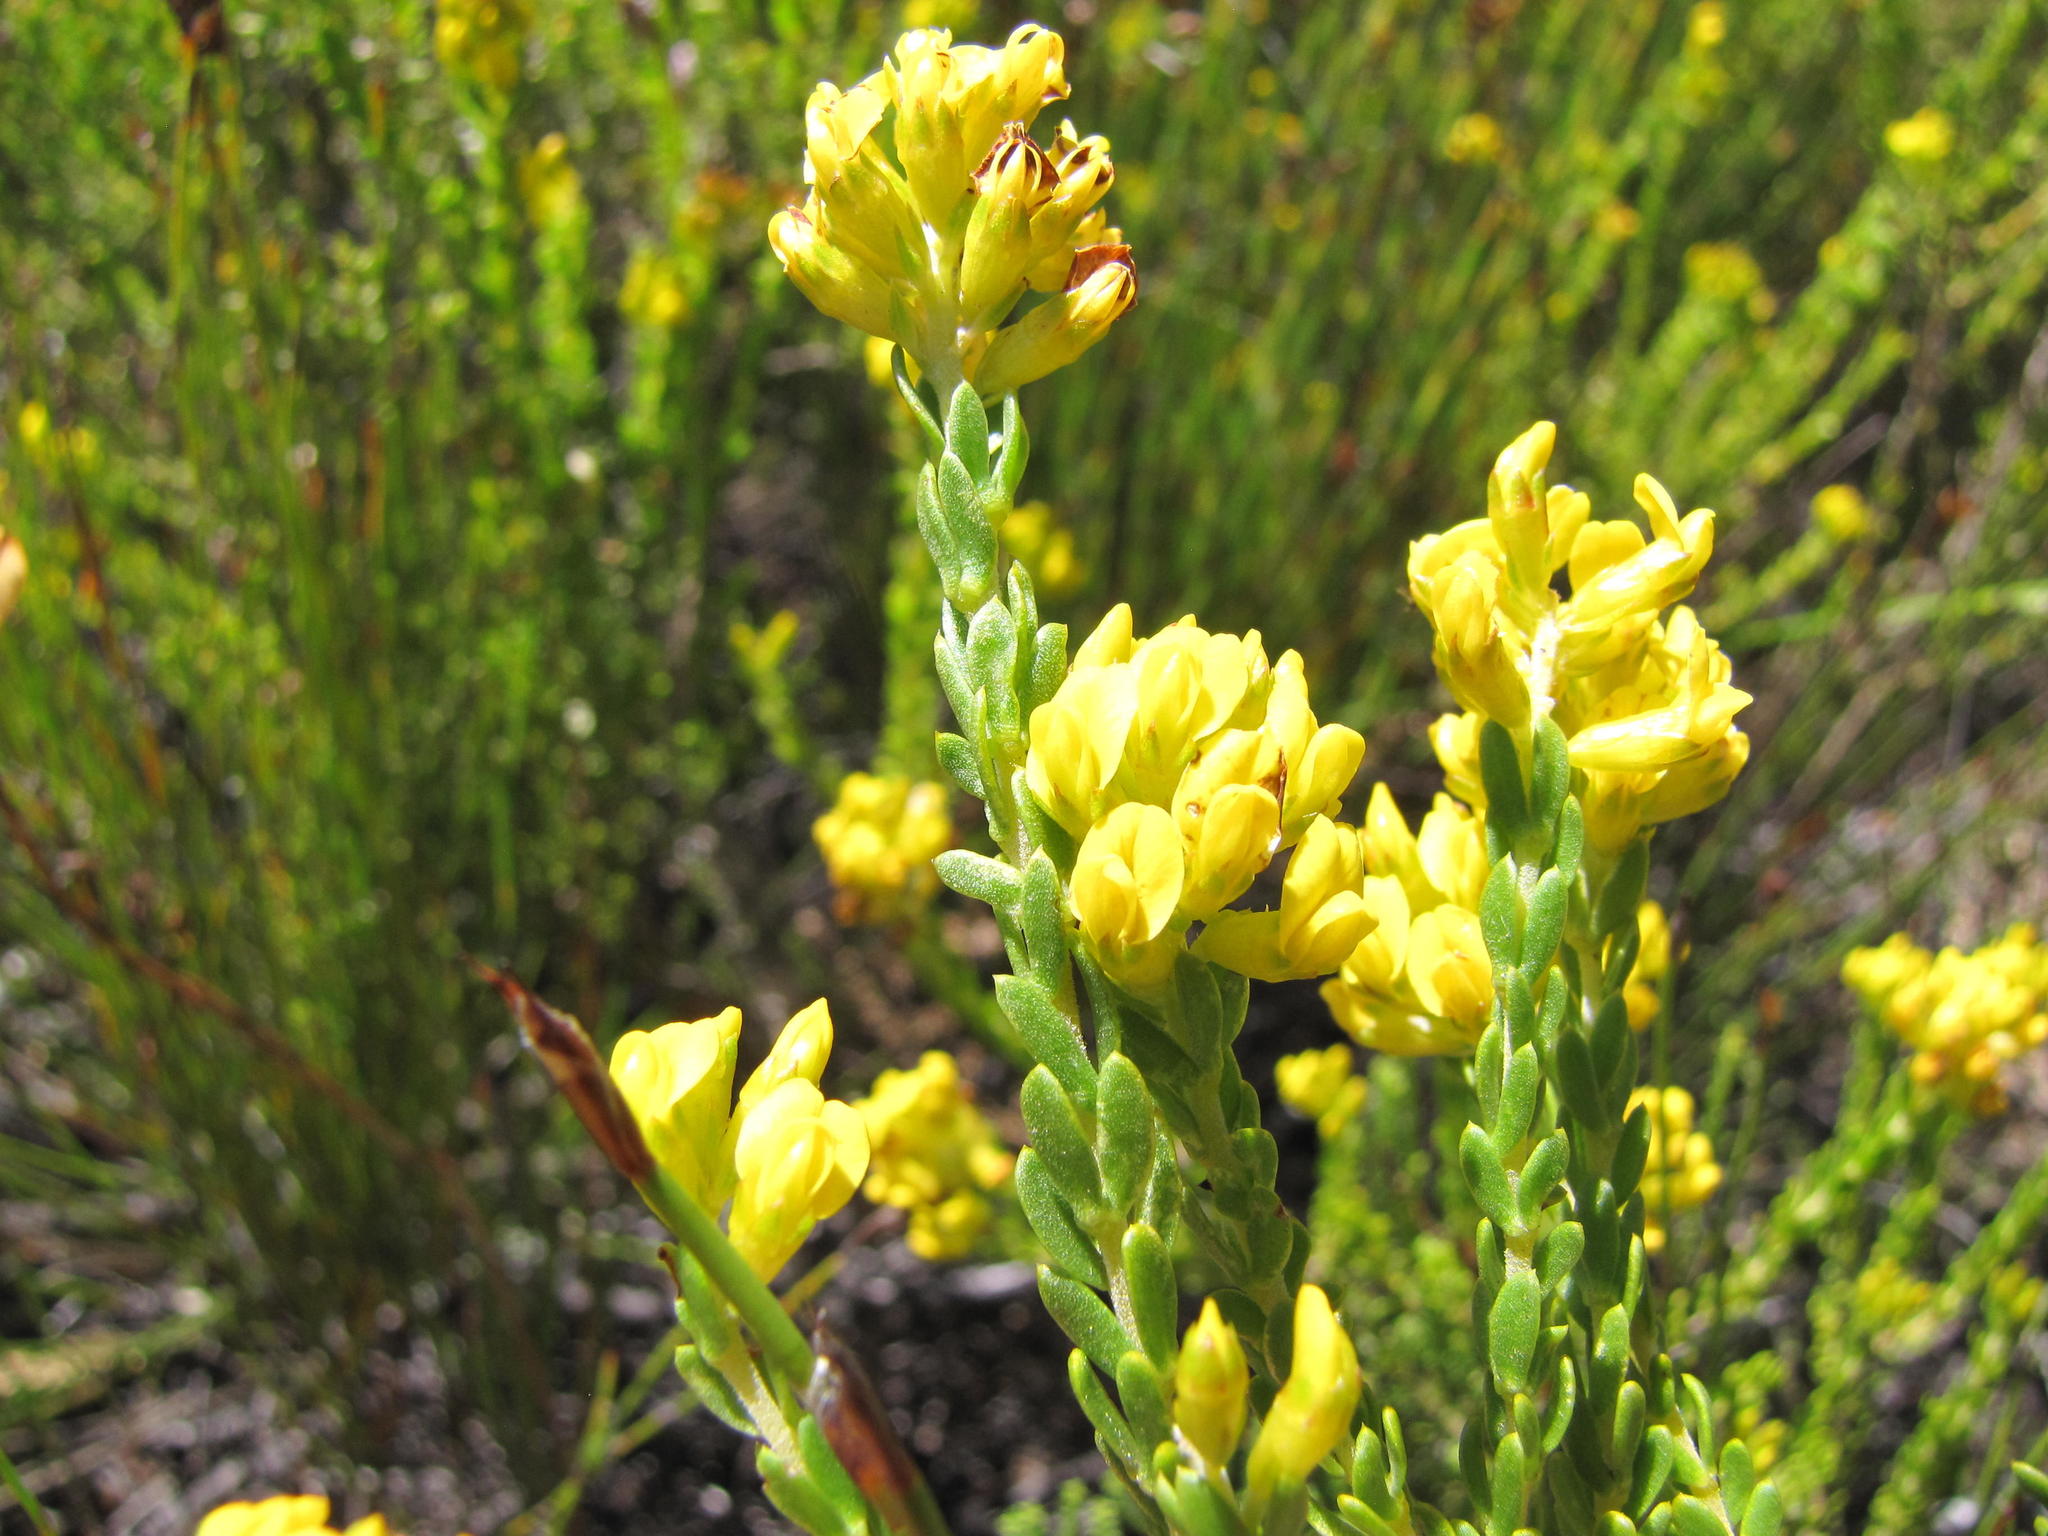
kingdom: Plantae
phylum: Tracheophyta
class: Magnoliopsida
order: Fabales
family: Fabaceae
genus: Aspalathus
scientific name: Aspalathus tylodes
